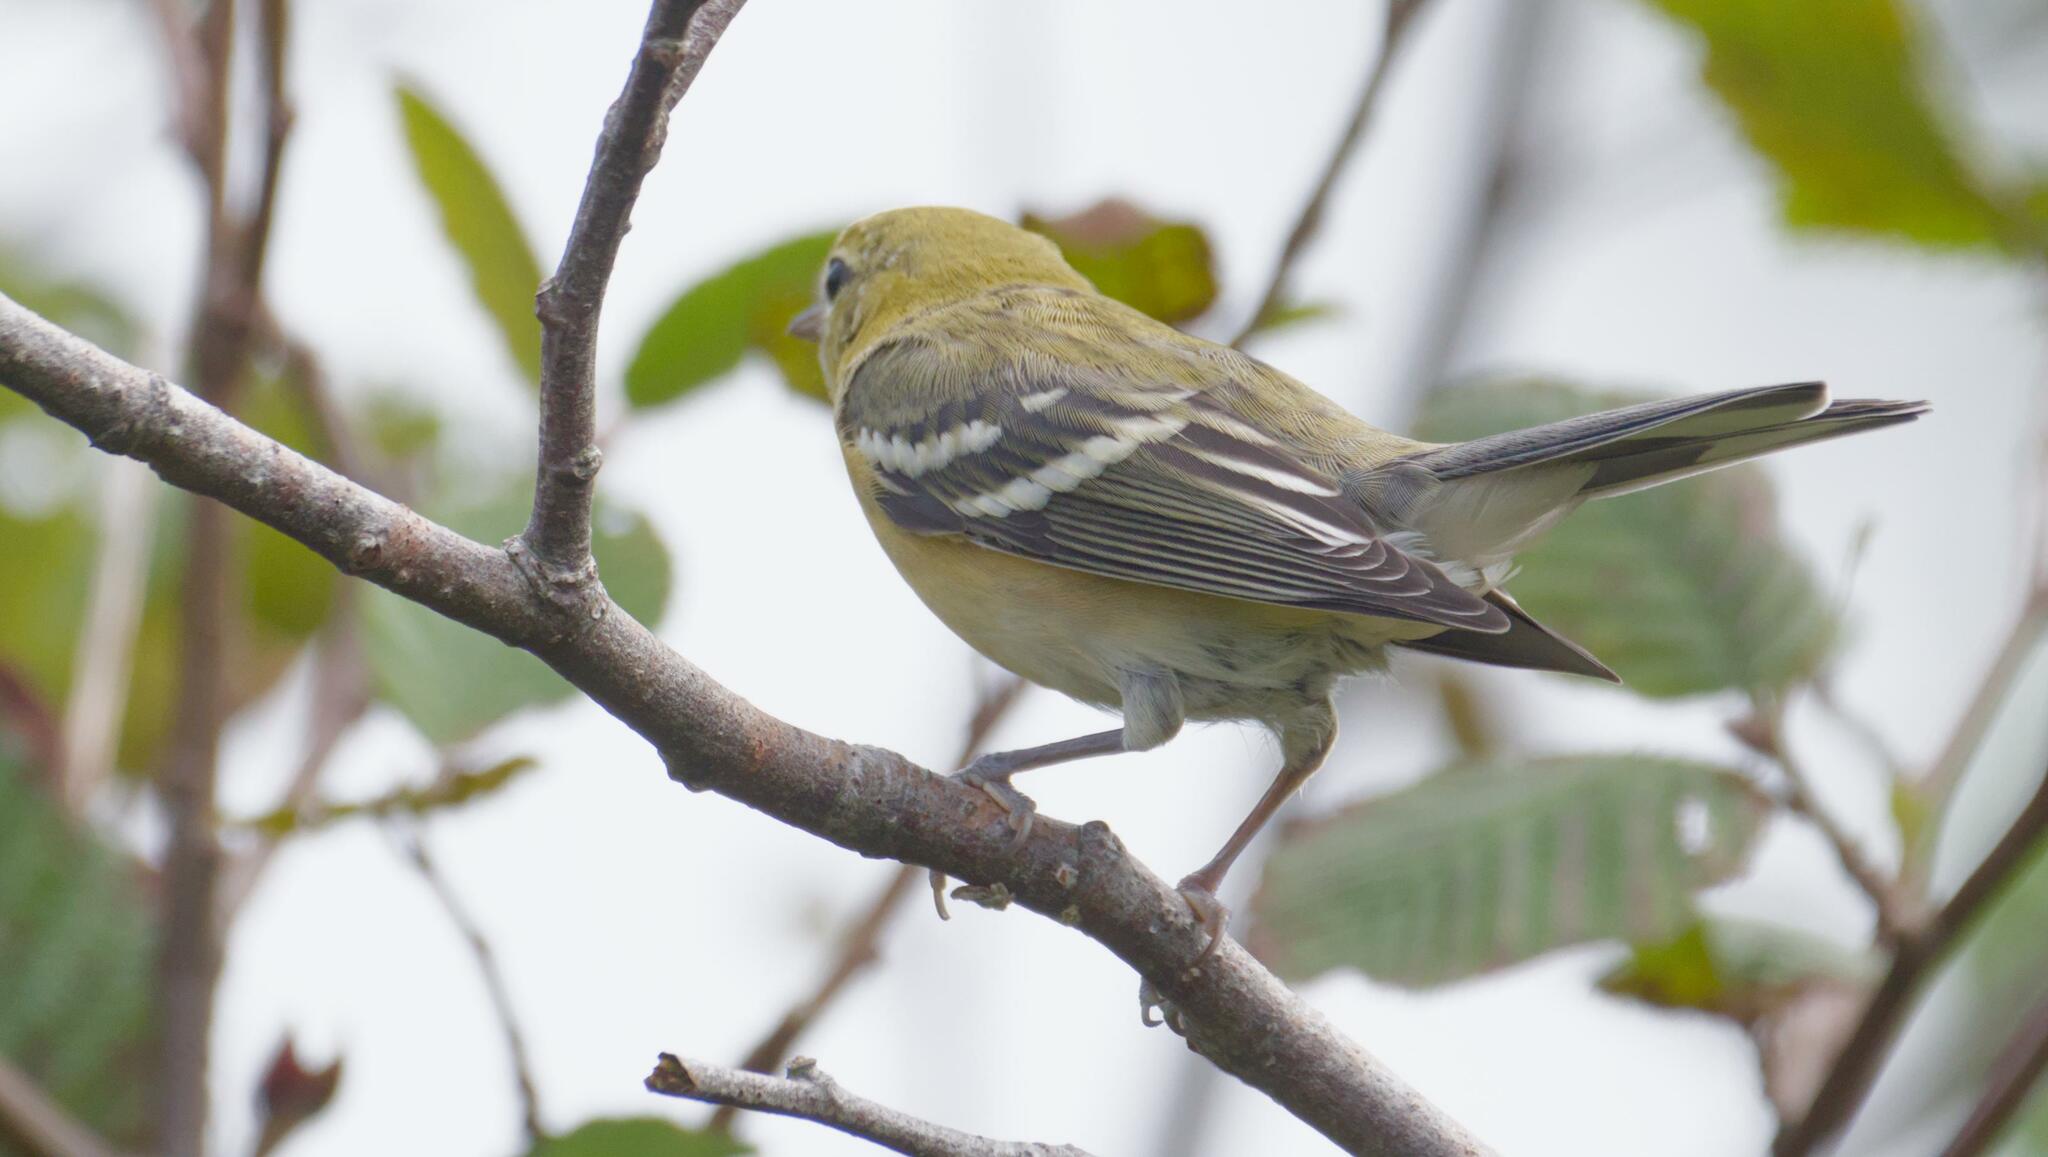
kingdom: Animalia
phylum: Chordata
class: Aves
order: Passeriformes
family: Parulidae
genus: Setophaga
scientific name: Setophaga castanea
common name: Bay-breasted warbler
